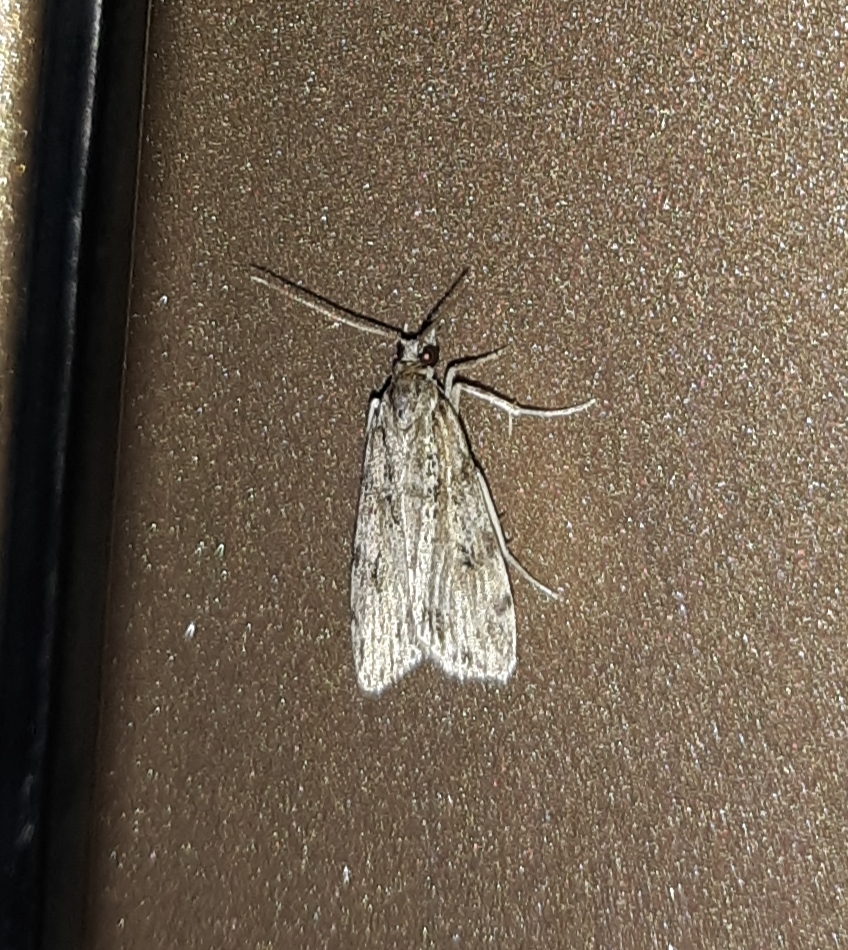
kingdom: Animalia
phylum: Arthropoda
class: Insecta
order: Lepidoptera
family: Crambidae
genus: Scoparia
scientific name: Scoparia biplagialis
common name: Double-striped scoparia moth
